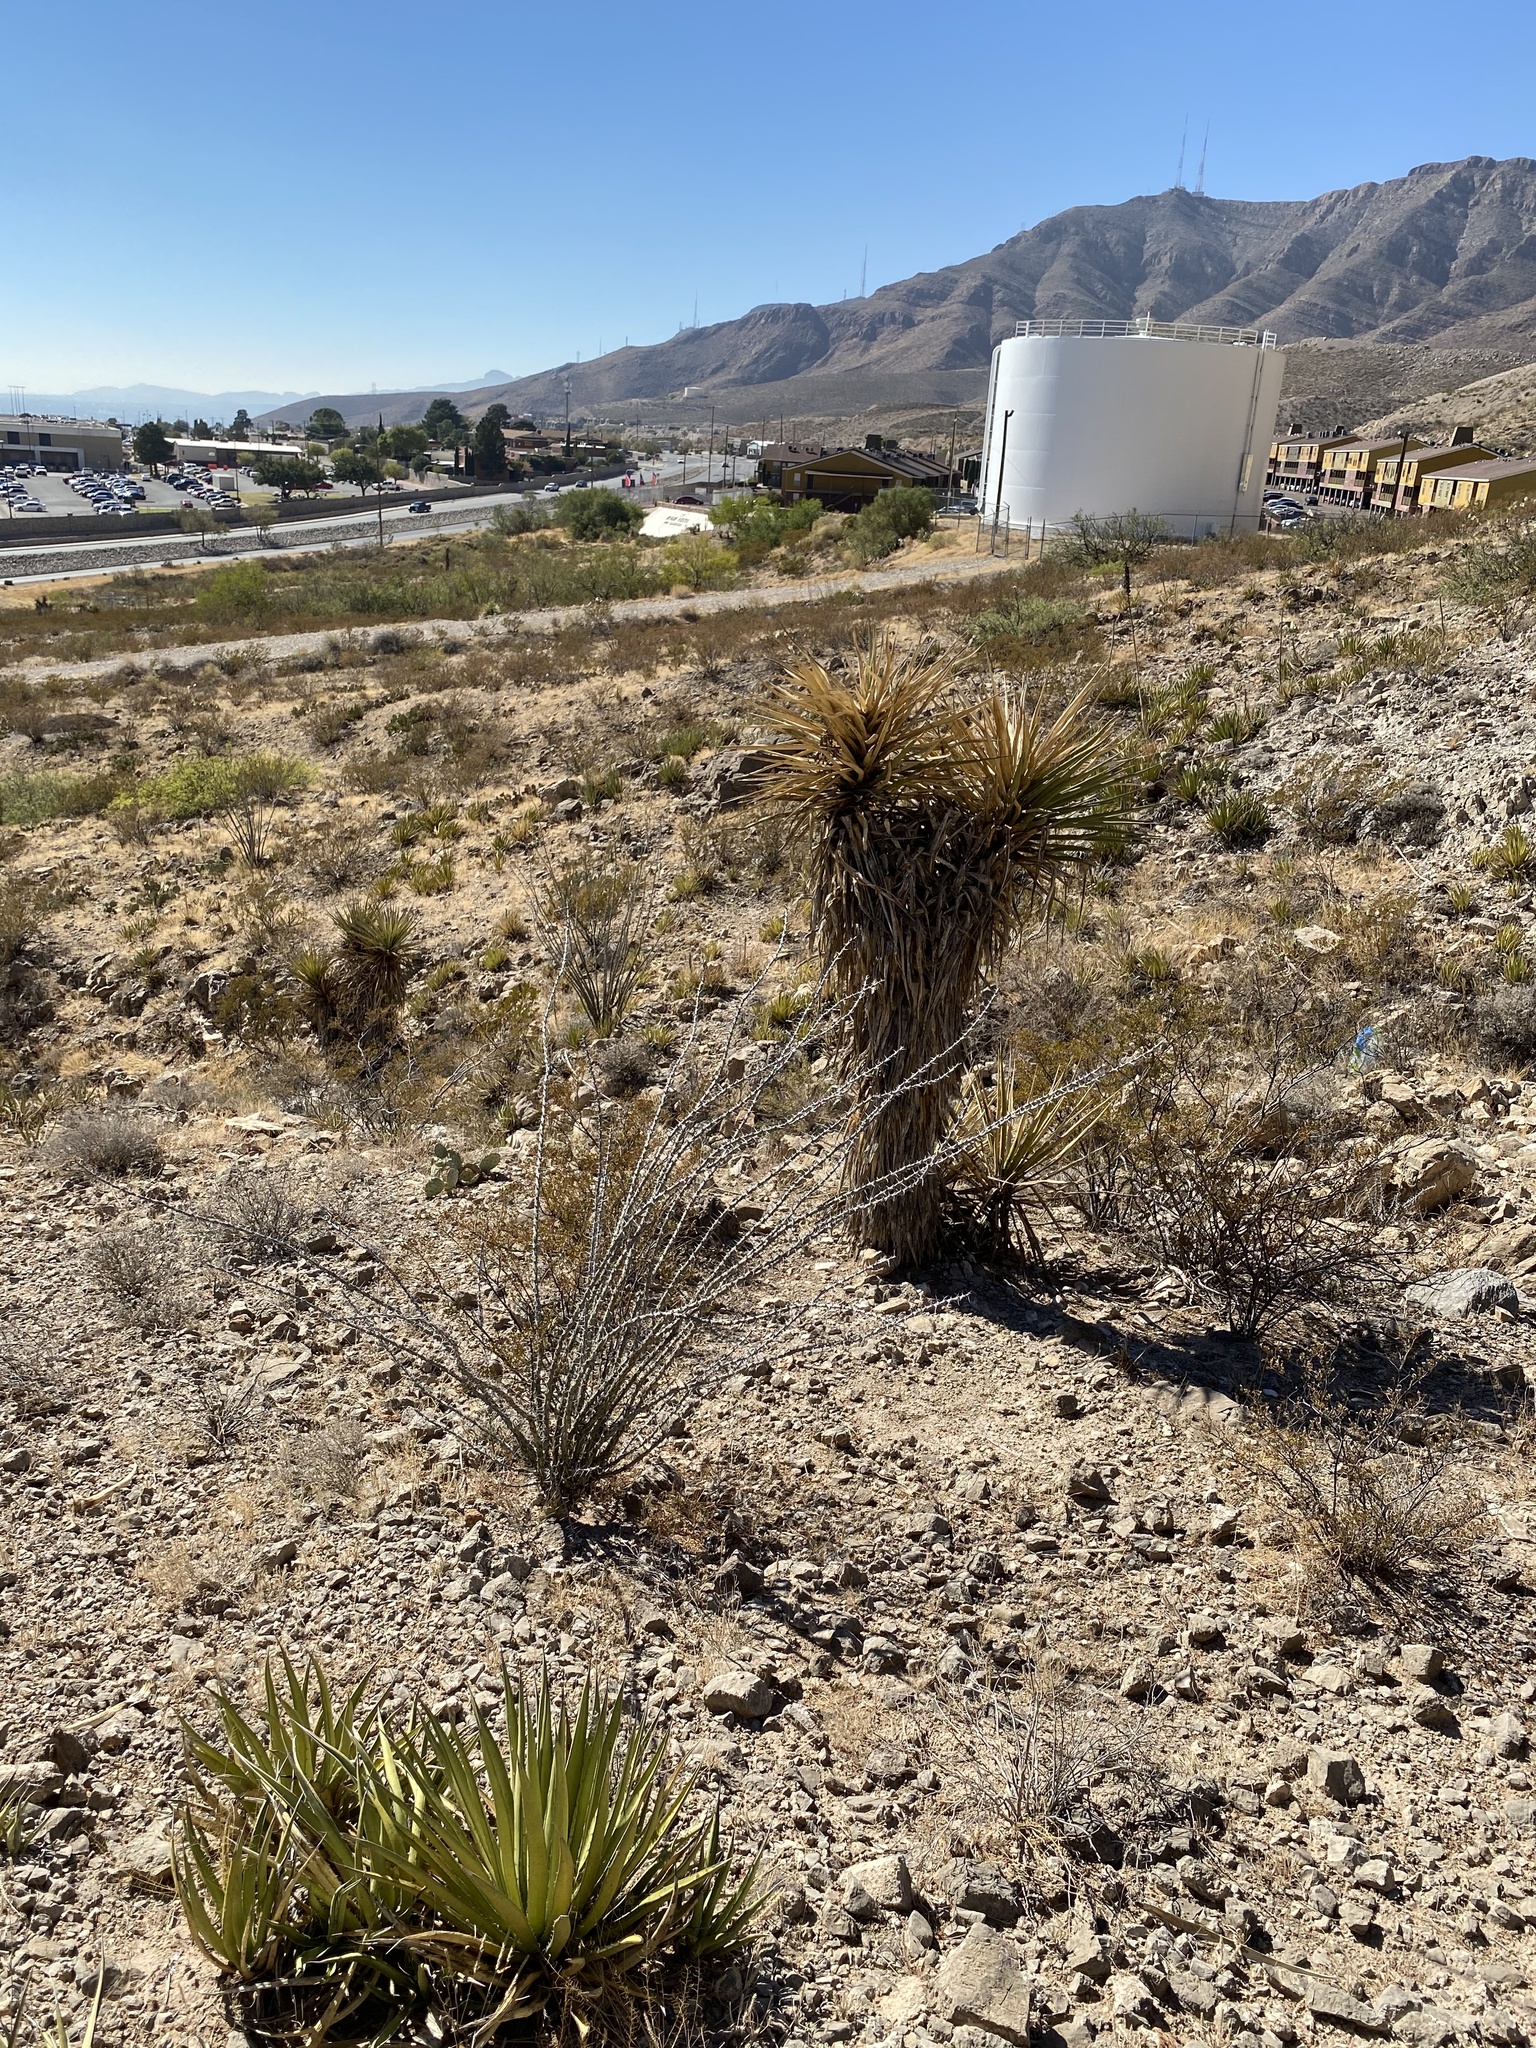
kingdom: Plantae
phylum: Tracheophyta
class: Magnoliopsida
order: Ericales
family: Fouquieriaceae
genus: Fouquieria
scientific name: Fouquieria splendens
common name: Vine-cactus
